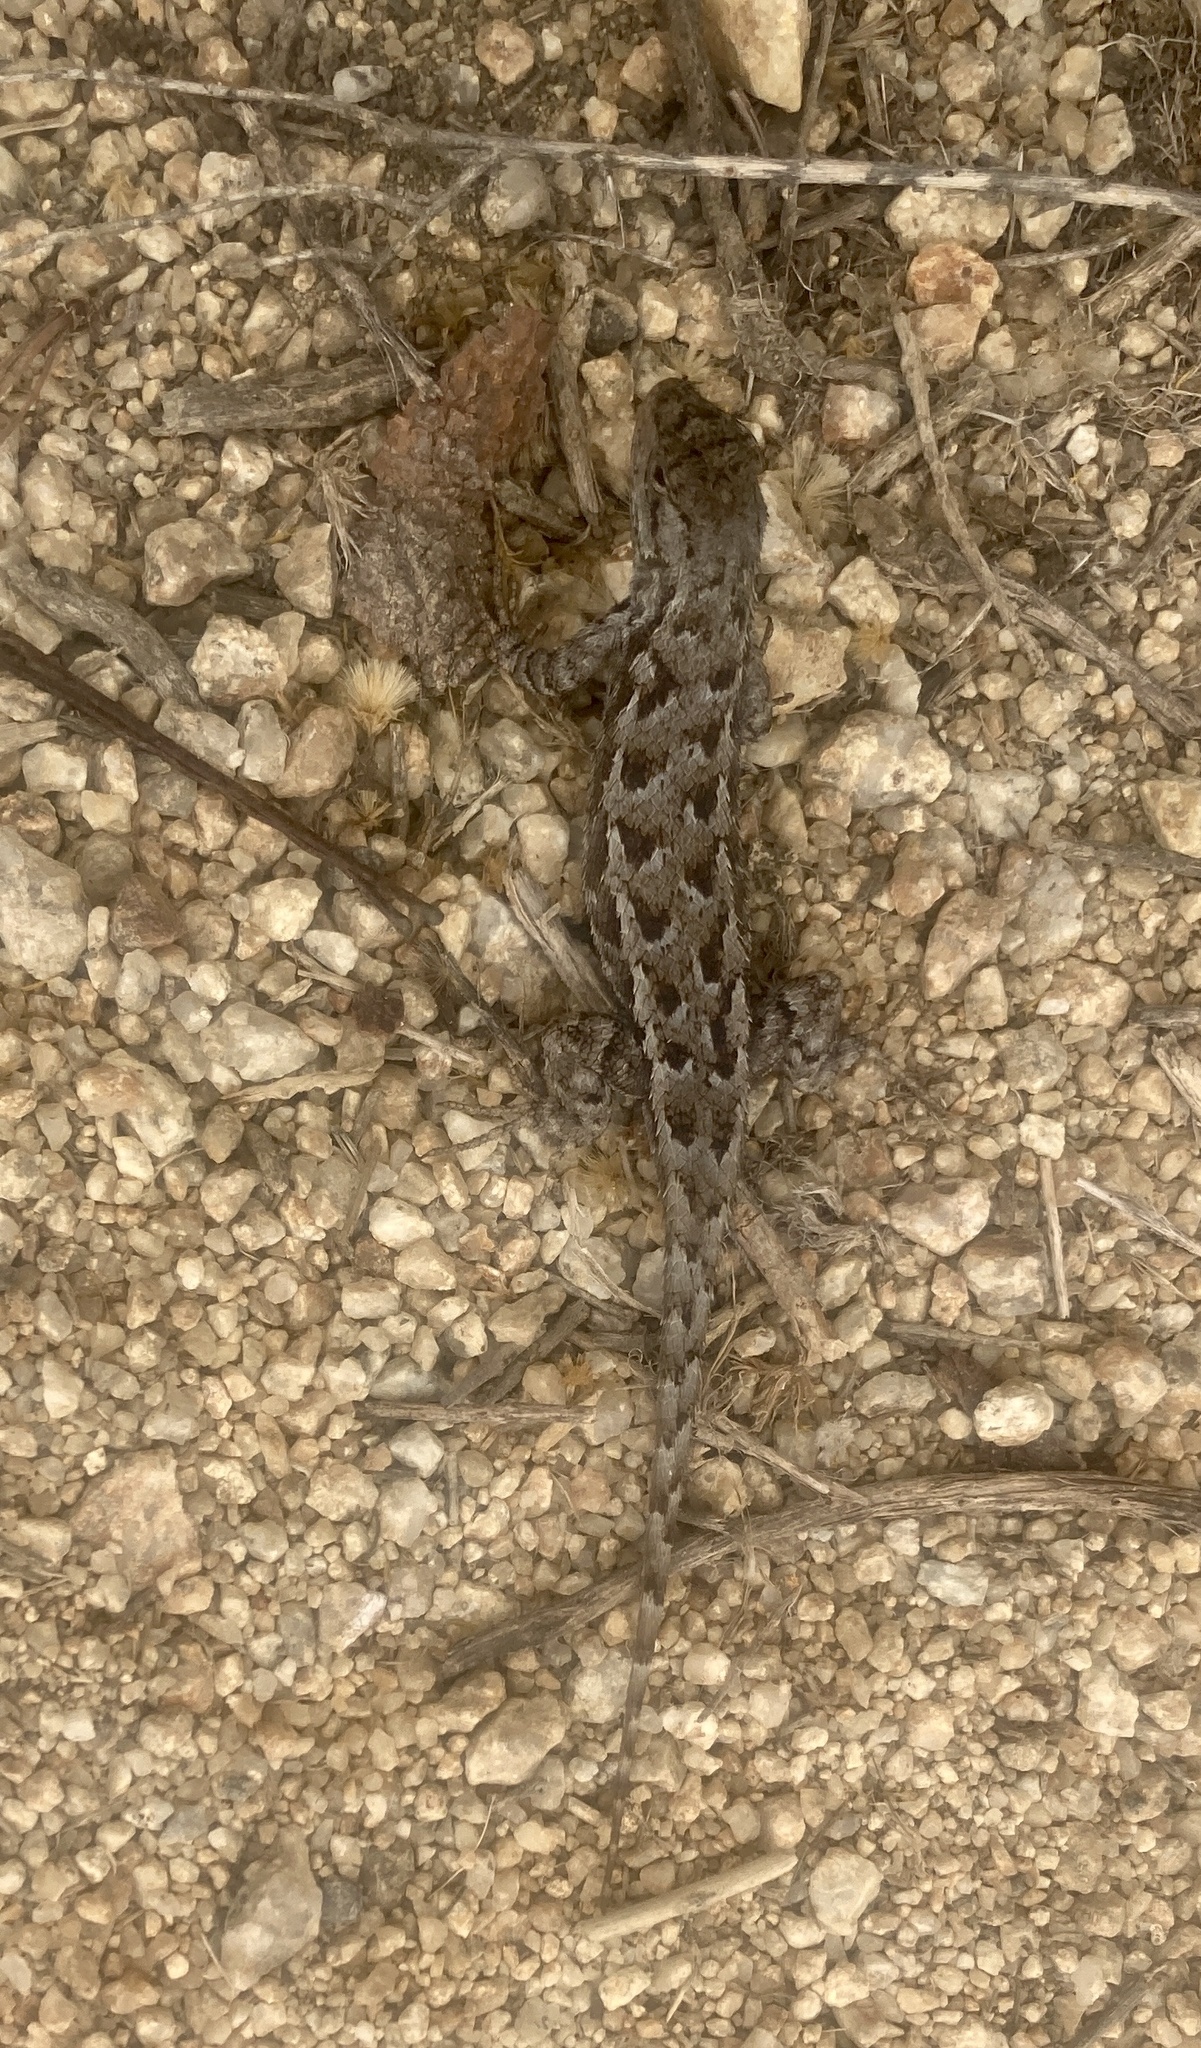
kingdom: Animalia
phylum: Chordata
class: Squamata
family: Phrynosomatidae
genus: Sceloporus
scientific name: Sceloporus occidentalis
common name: Western fence lizard
